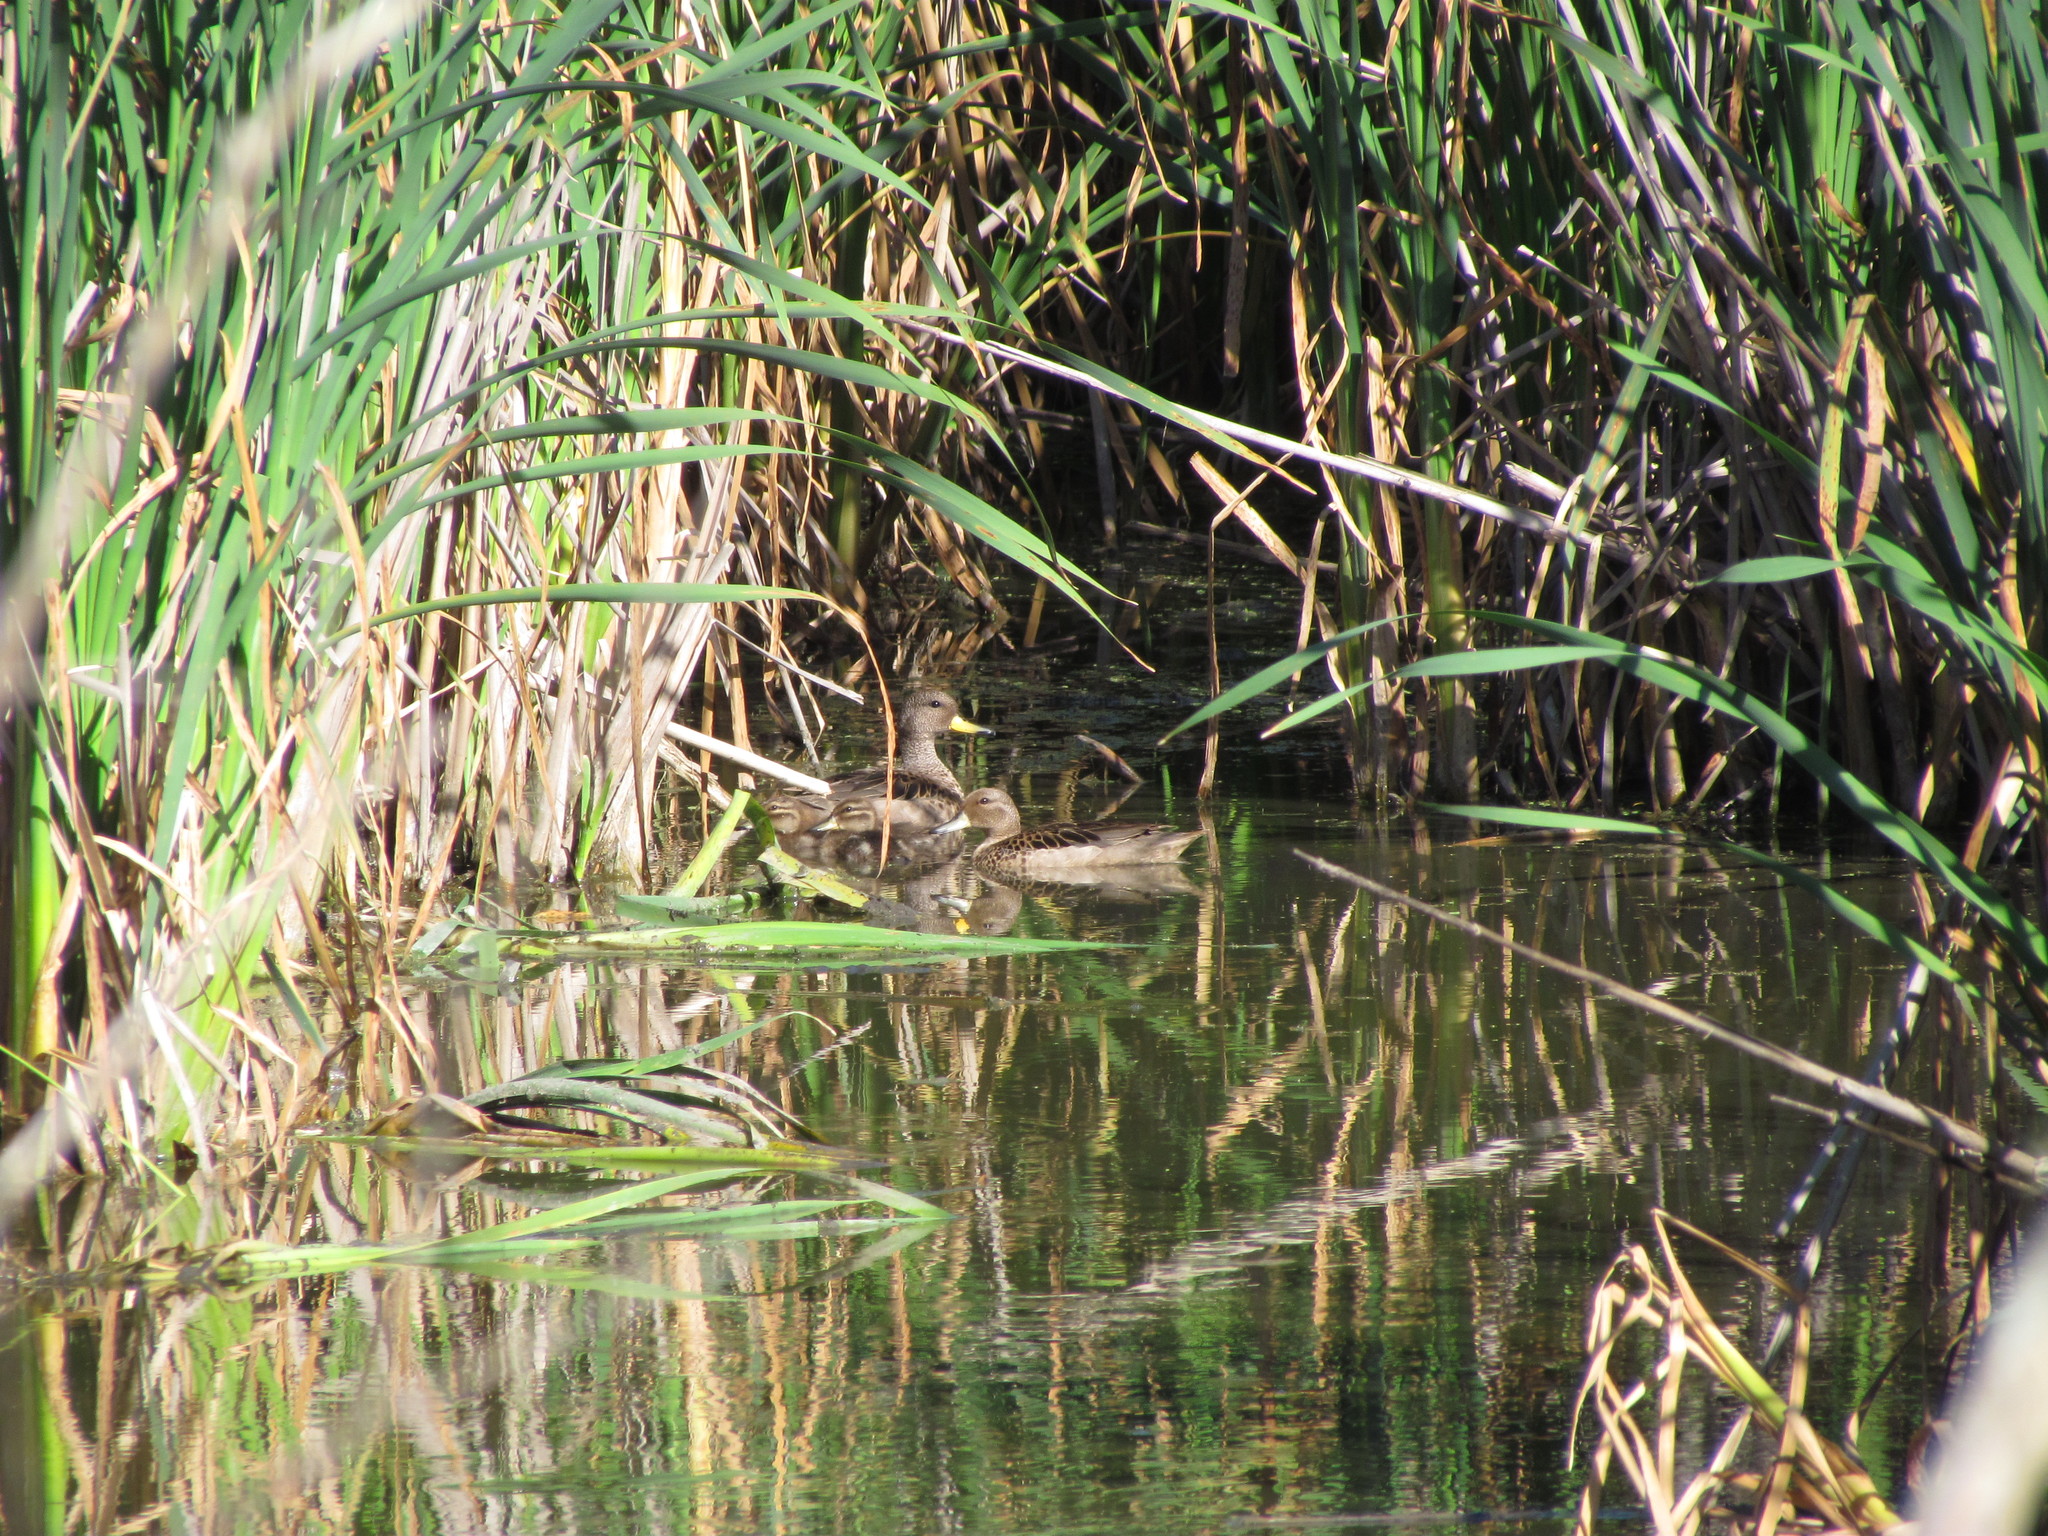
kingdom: Animalia
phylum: Chordata
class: Aves
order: Anseriformes
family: Anatidae
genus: Anas
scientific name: Anas flavirostris
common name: Yellow-billed teal
